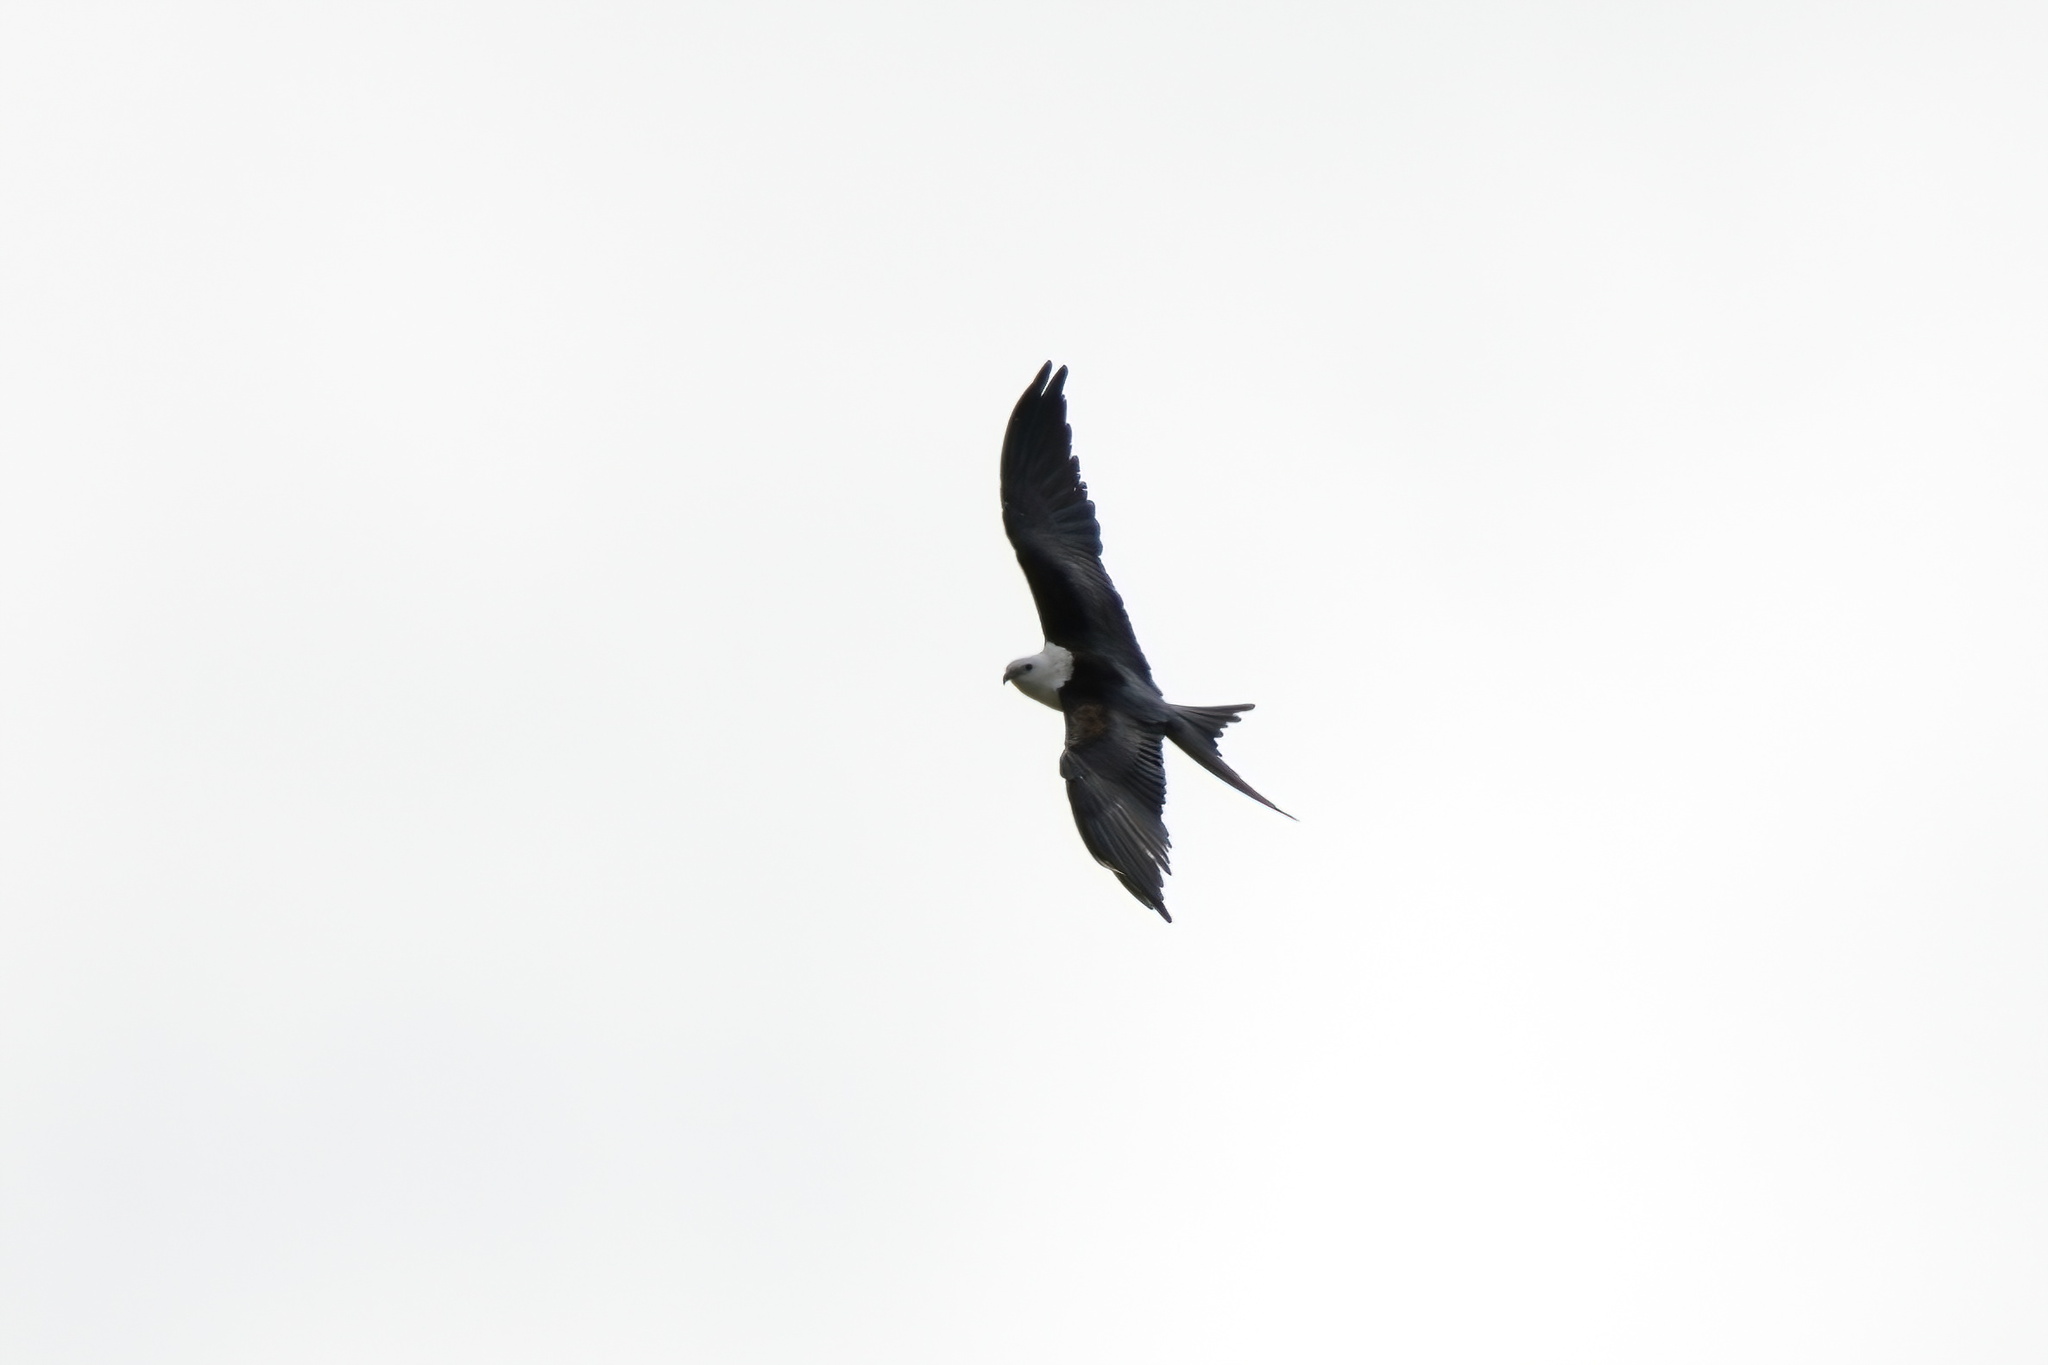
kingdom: Animalia
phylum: Chordata
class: Aves
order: Accipitriformes
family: Accipitridae
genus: Elanoides
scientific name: Elanoides forficatus
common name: Swallow-tailed kite
